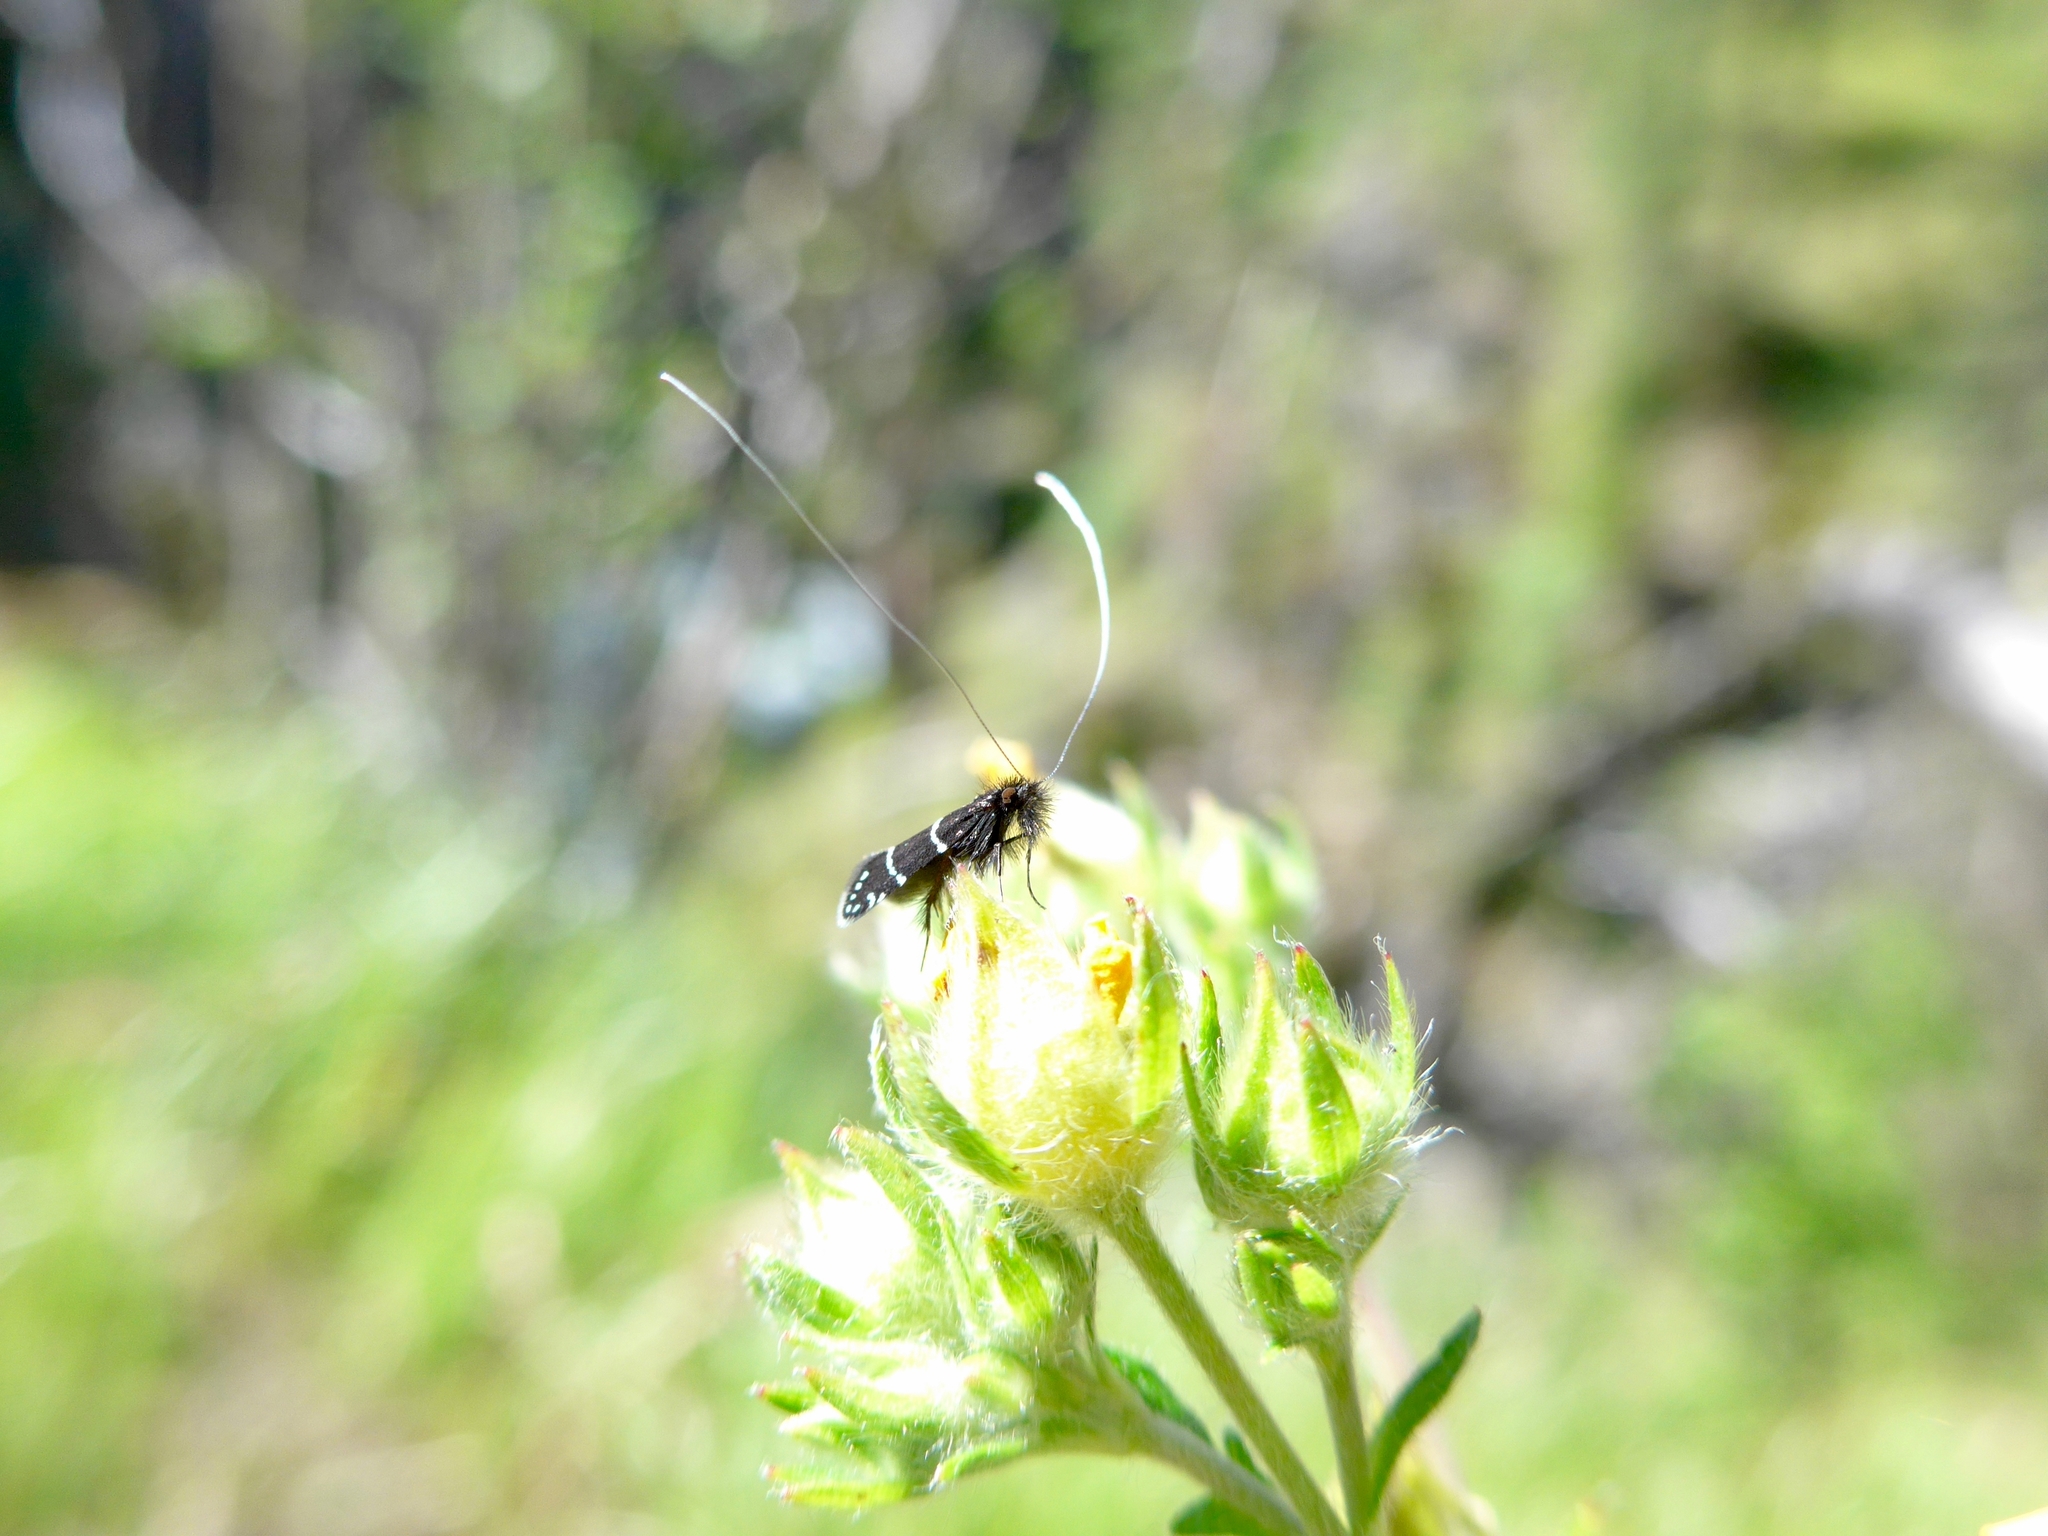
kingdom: Animalia
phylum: Arthropoda
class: Insecta
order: Lepidoptera
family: Adelidae
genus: Adela
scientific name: Adela septentrionella
